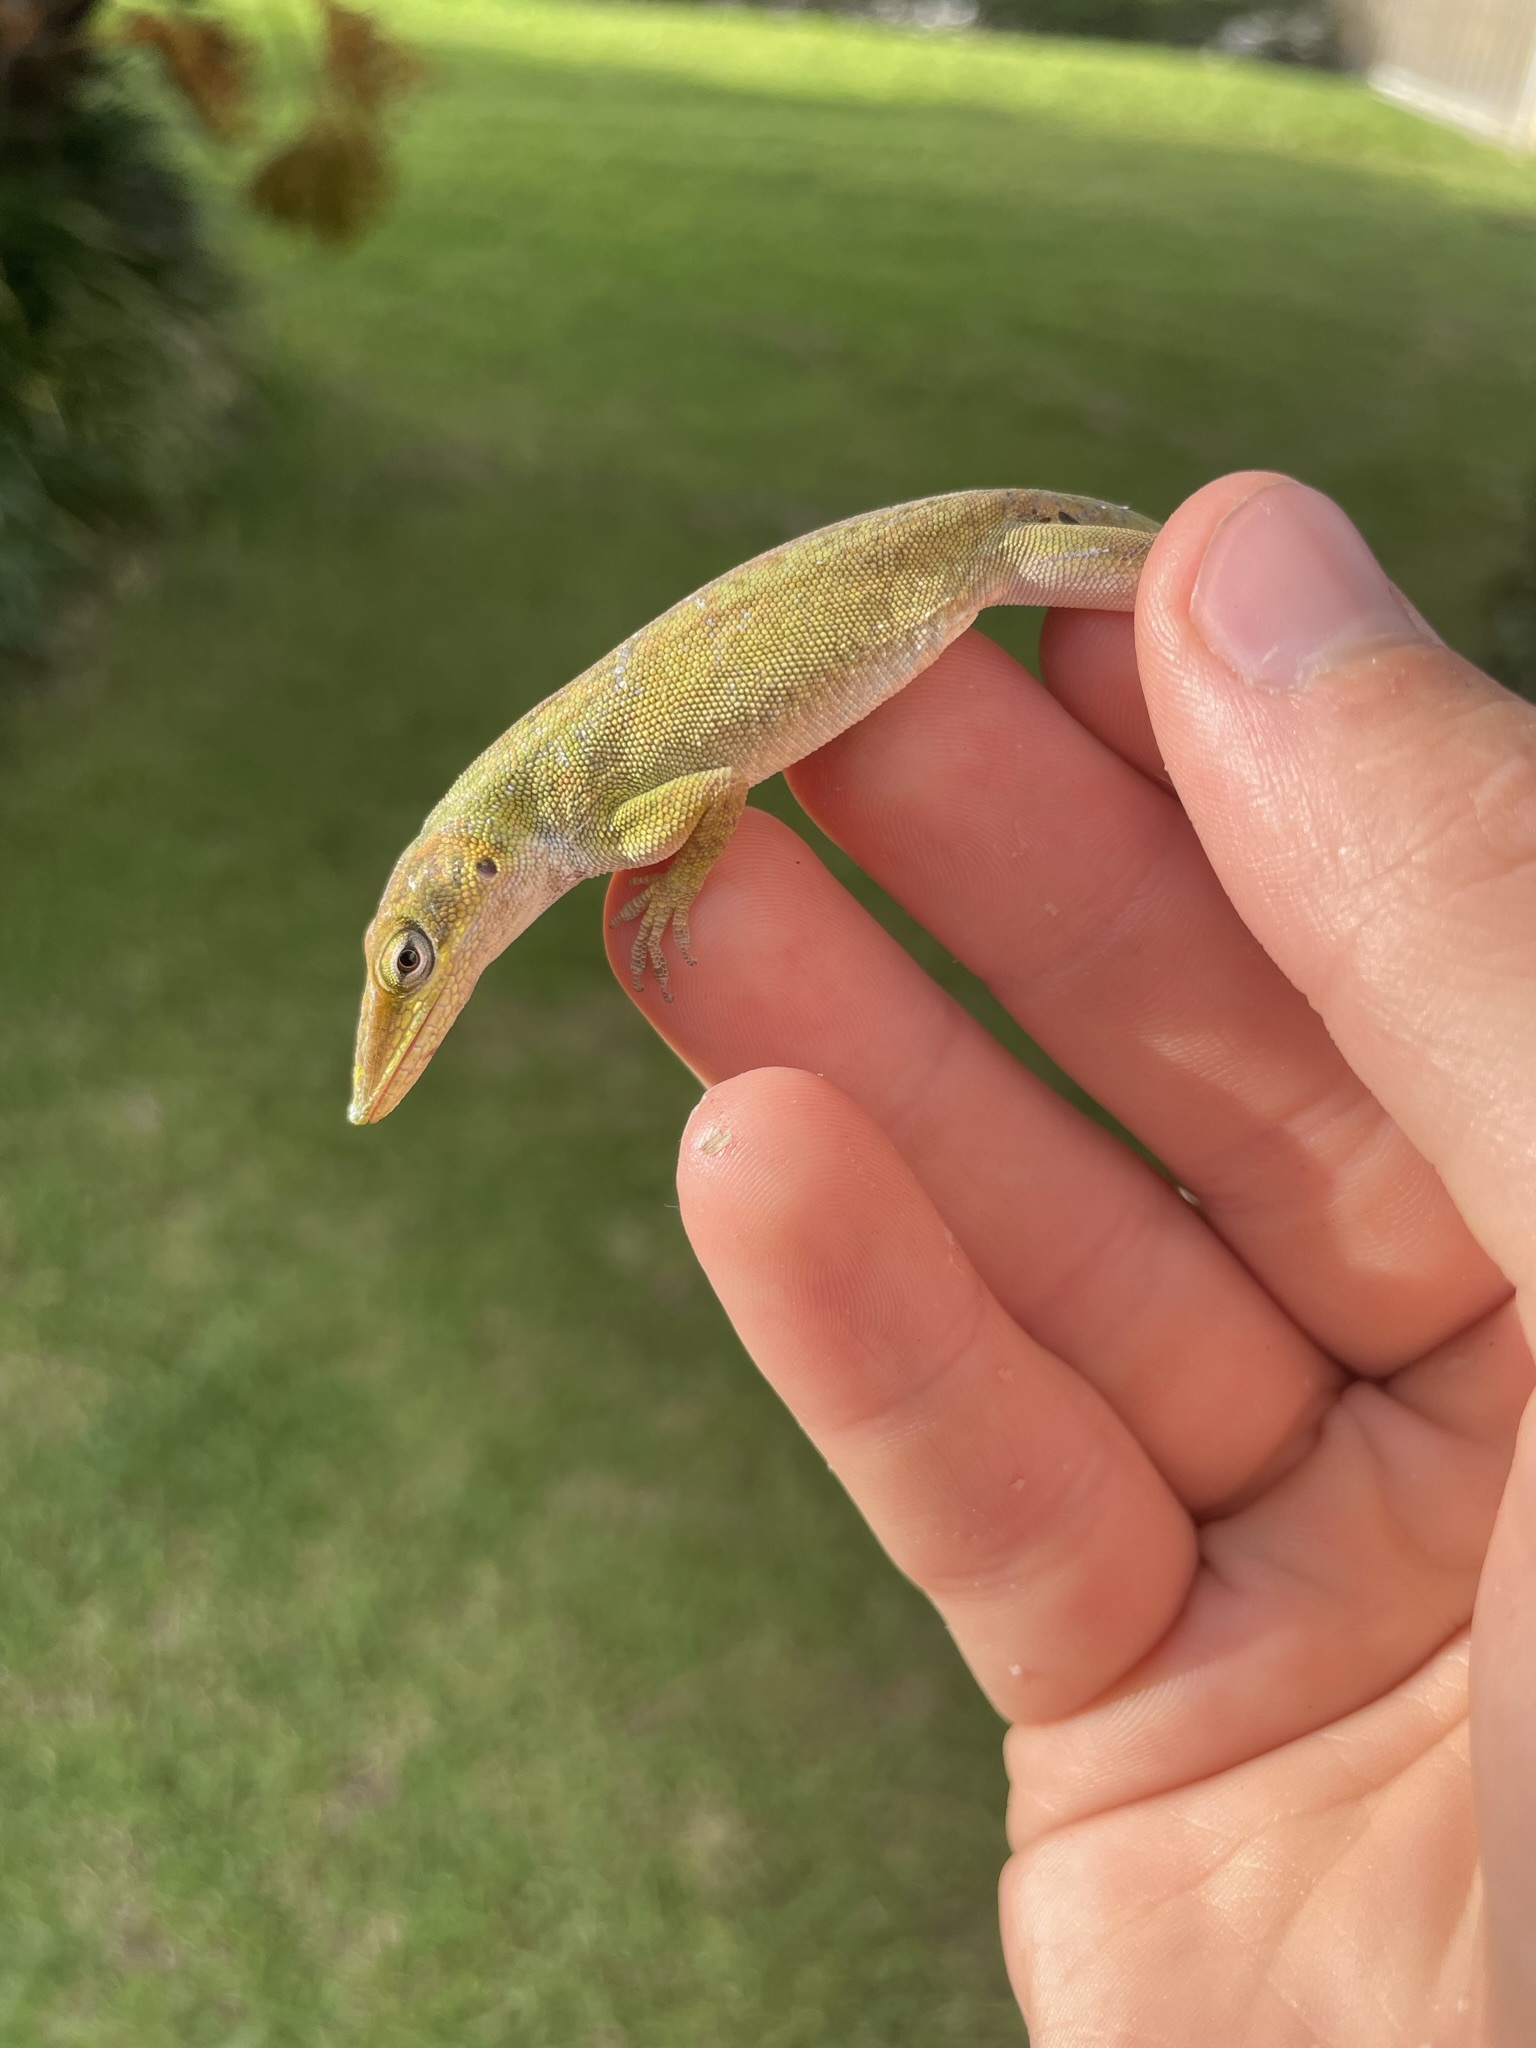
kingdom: Animalia
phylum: Chordata
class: Squamata
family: Dactyloidae
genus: Anolis
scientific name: Anolis carolinensis
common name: Green anole
